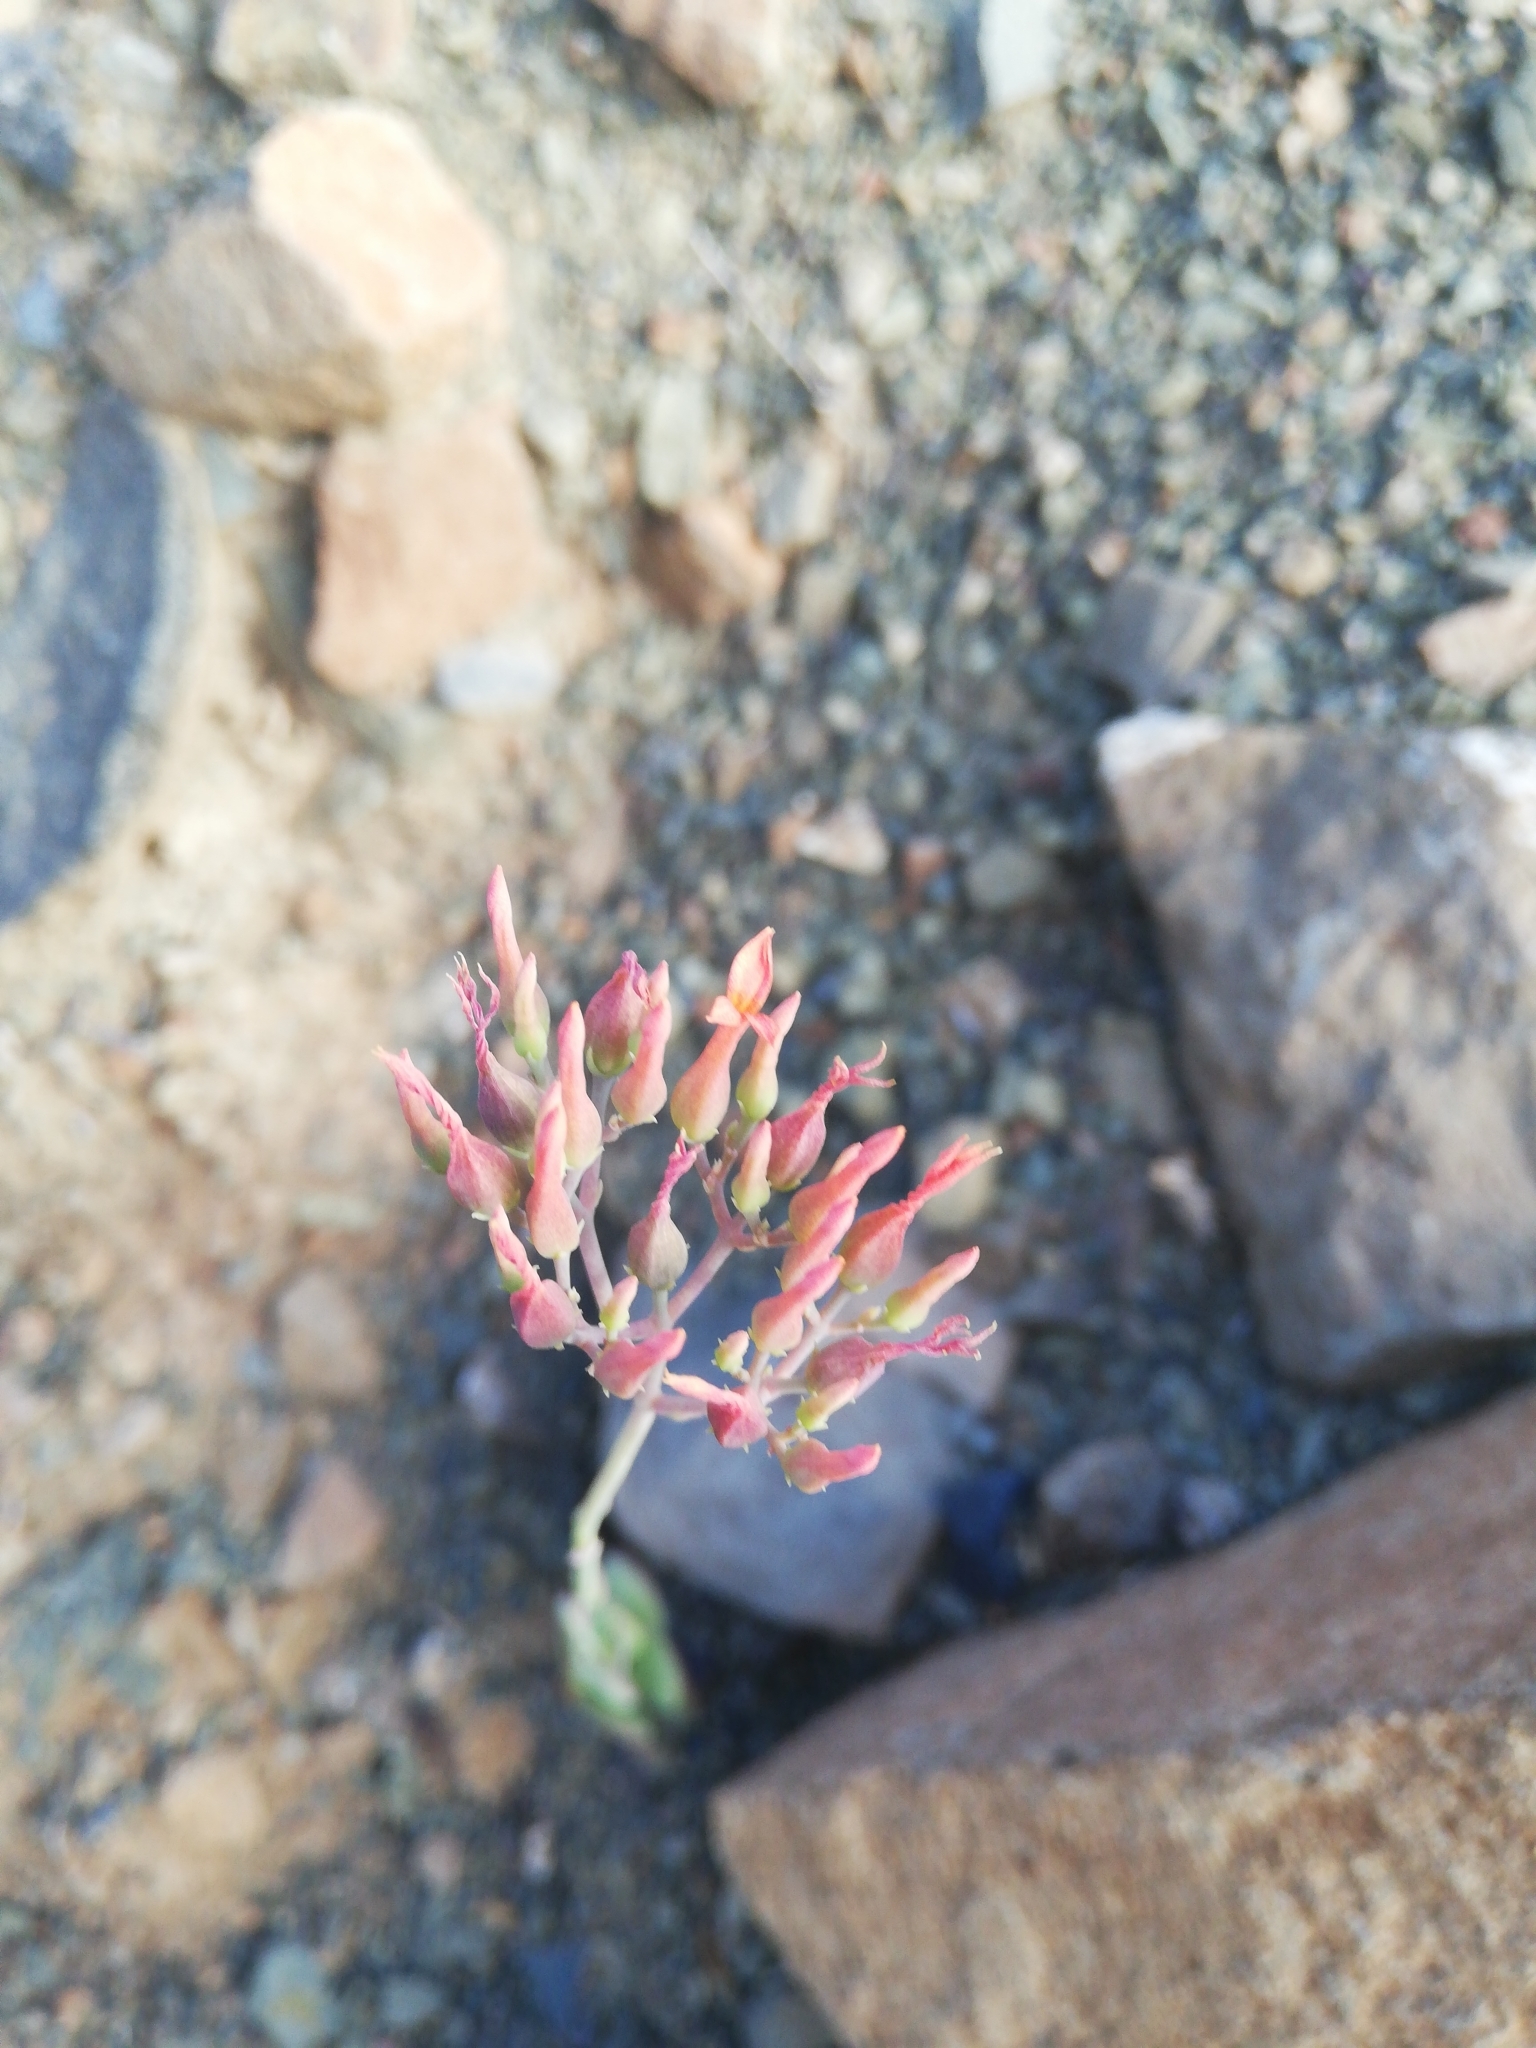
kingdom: Plantae
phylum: Tracheophyta
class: Magnoliopsida
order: Saxifragales
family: Crassulaceae
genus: Kalanchoe
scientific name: Kalanchoe rotundifolia
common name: Common kalanchoe
